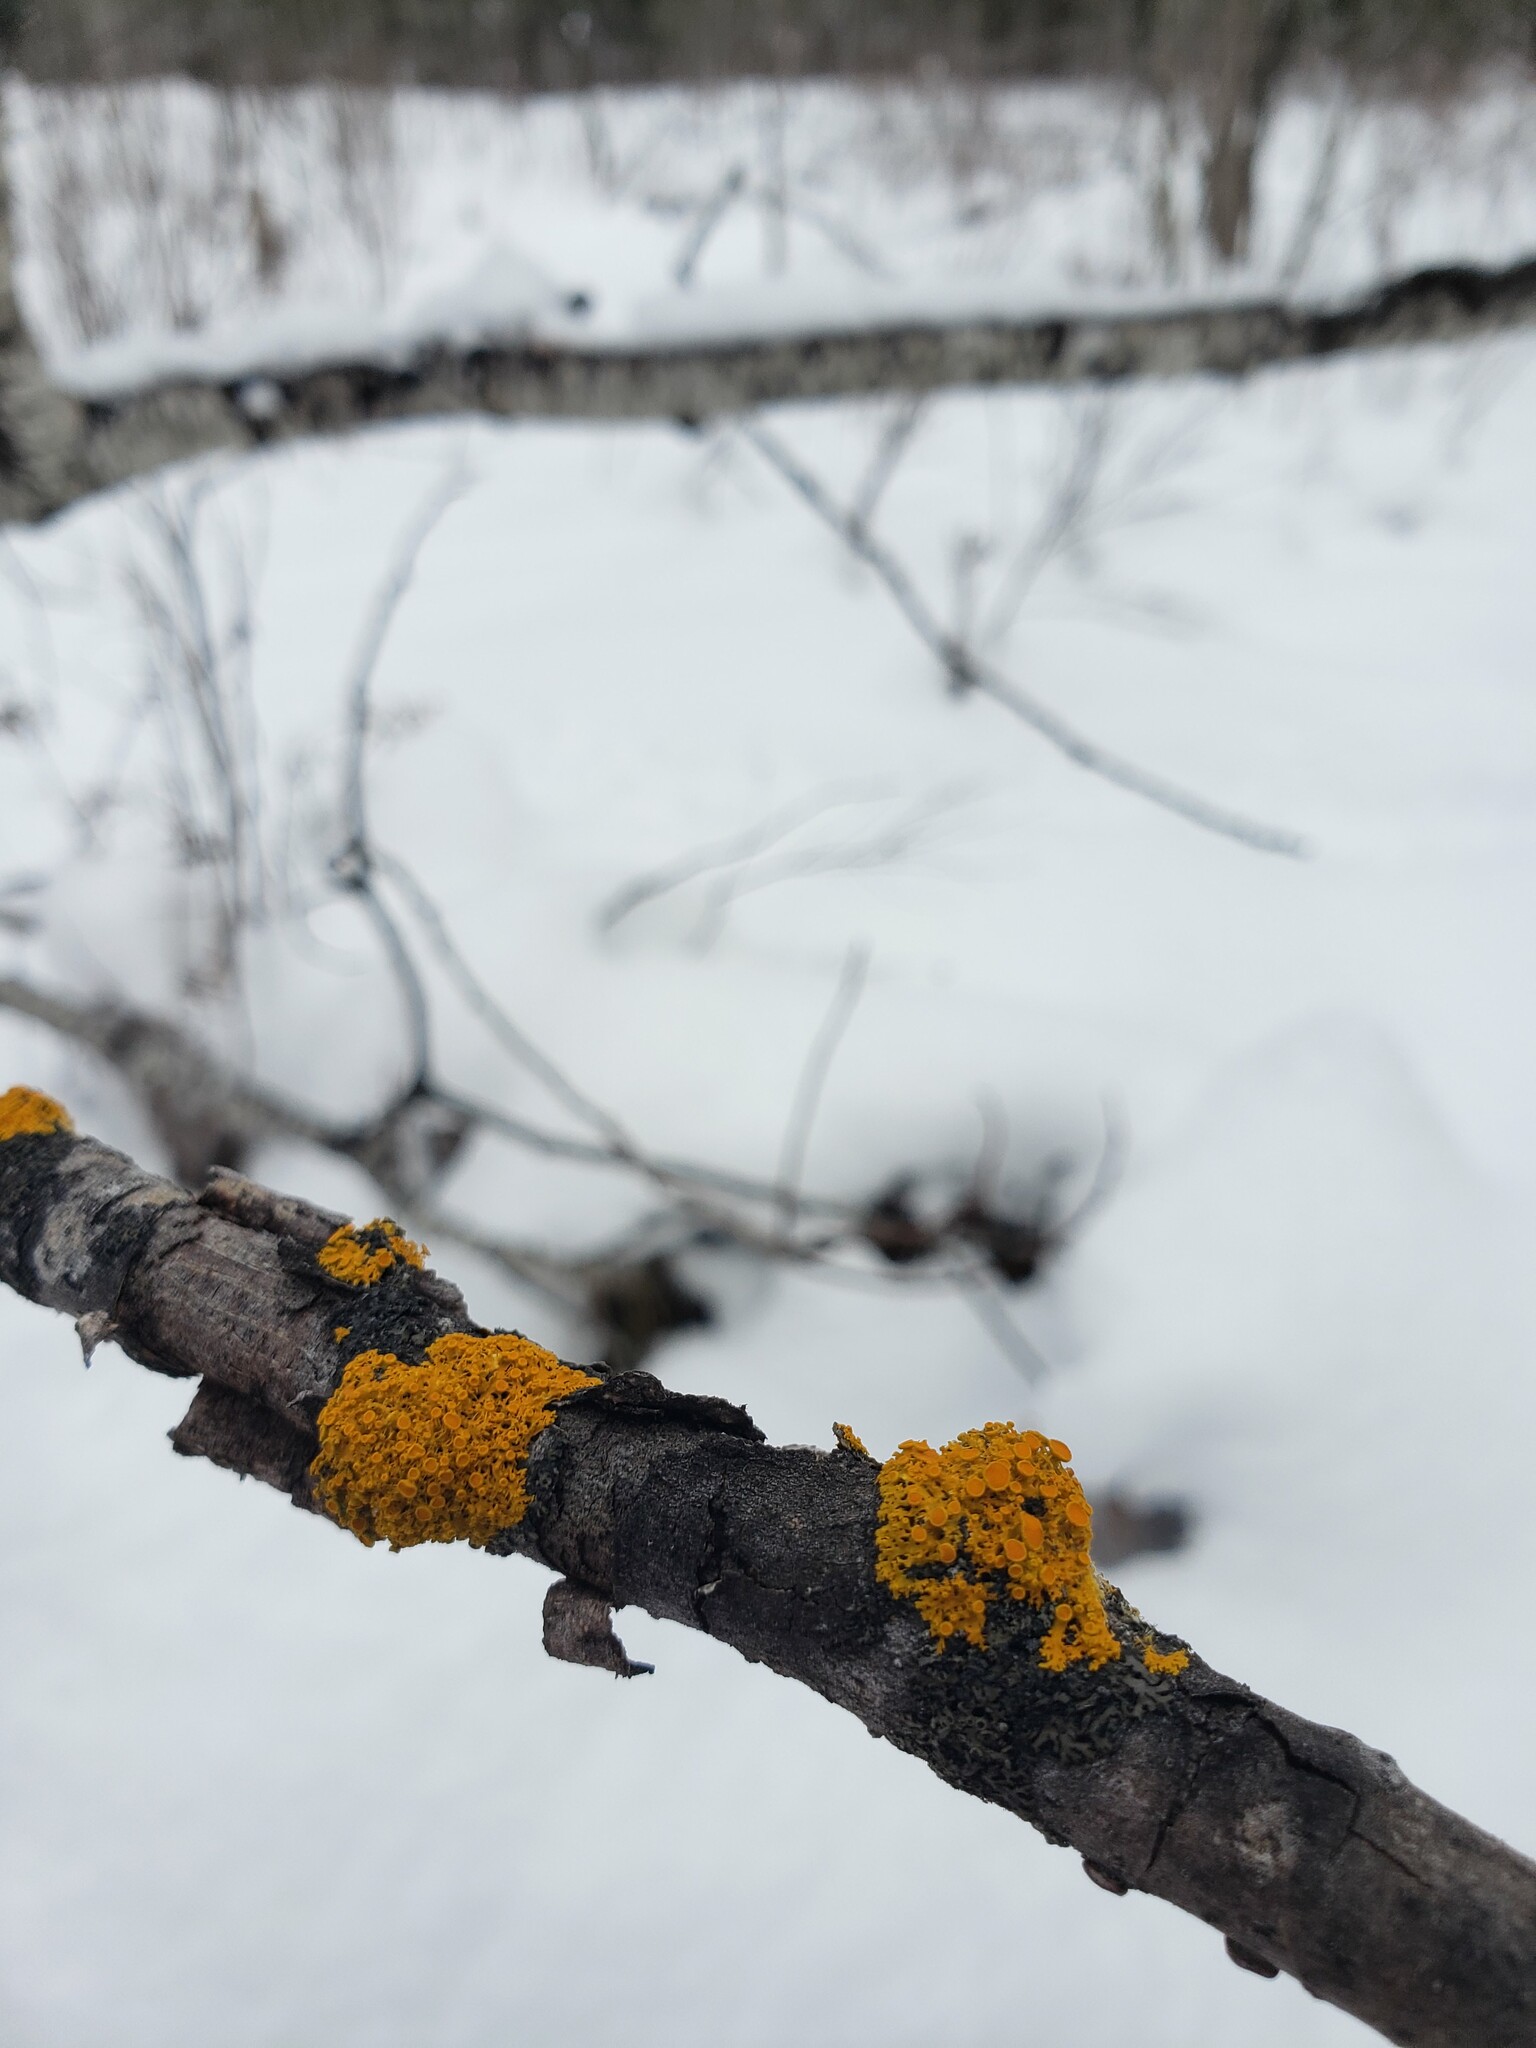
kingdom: Fungi
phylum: Ascomycota
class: Lecanoromycetes
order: Teloschistales
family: Teloschistaceae
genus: Gallowayella
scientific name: Gallowayella hasseana
